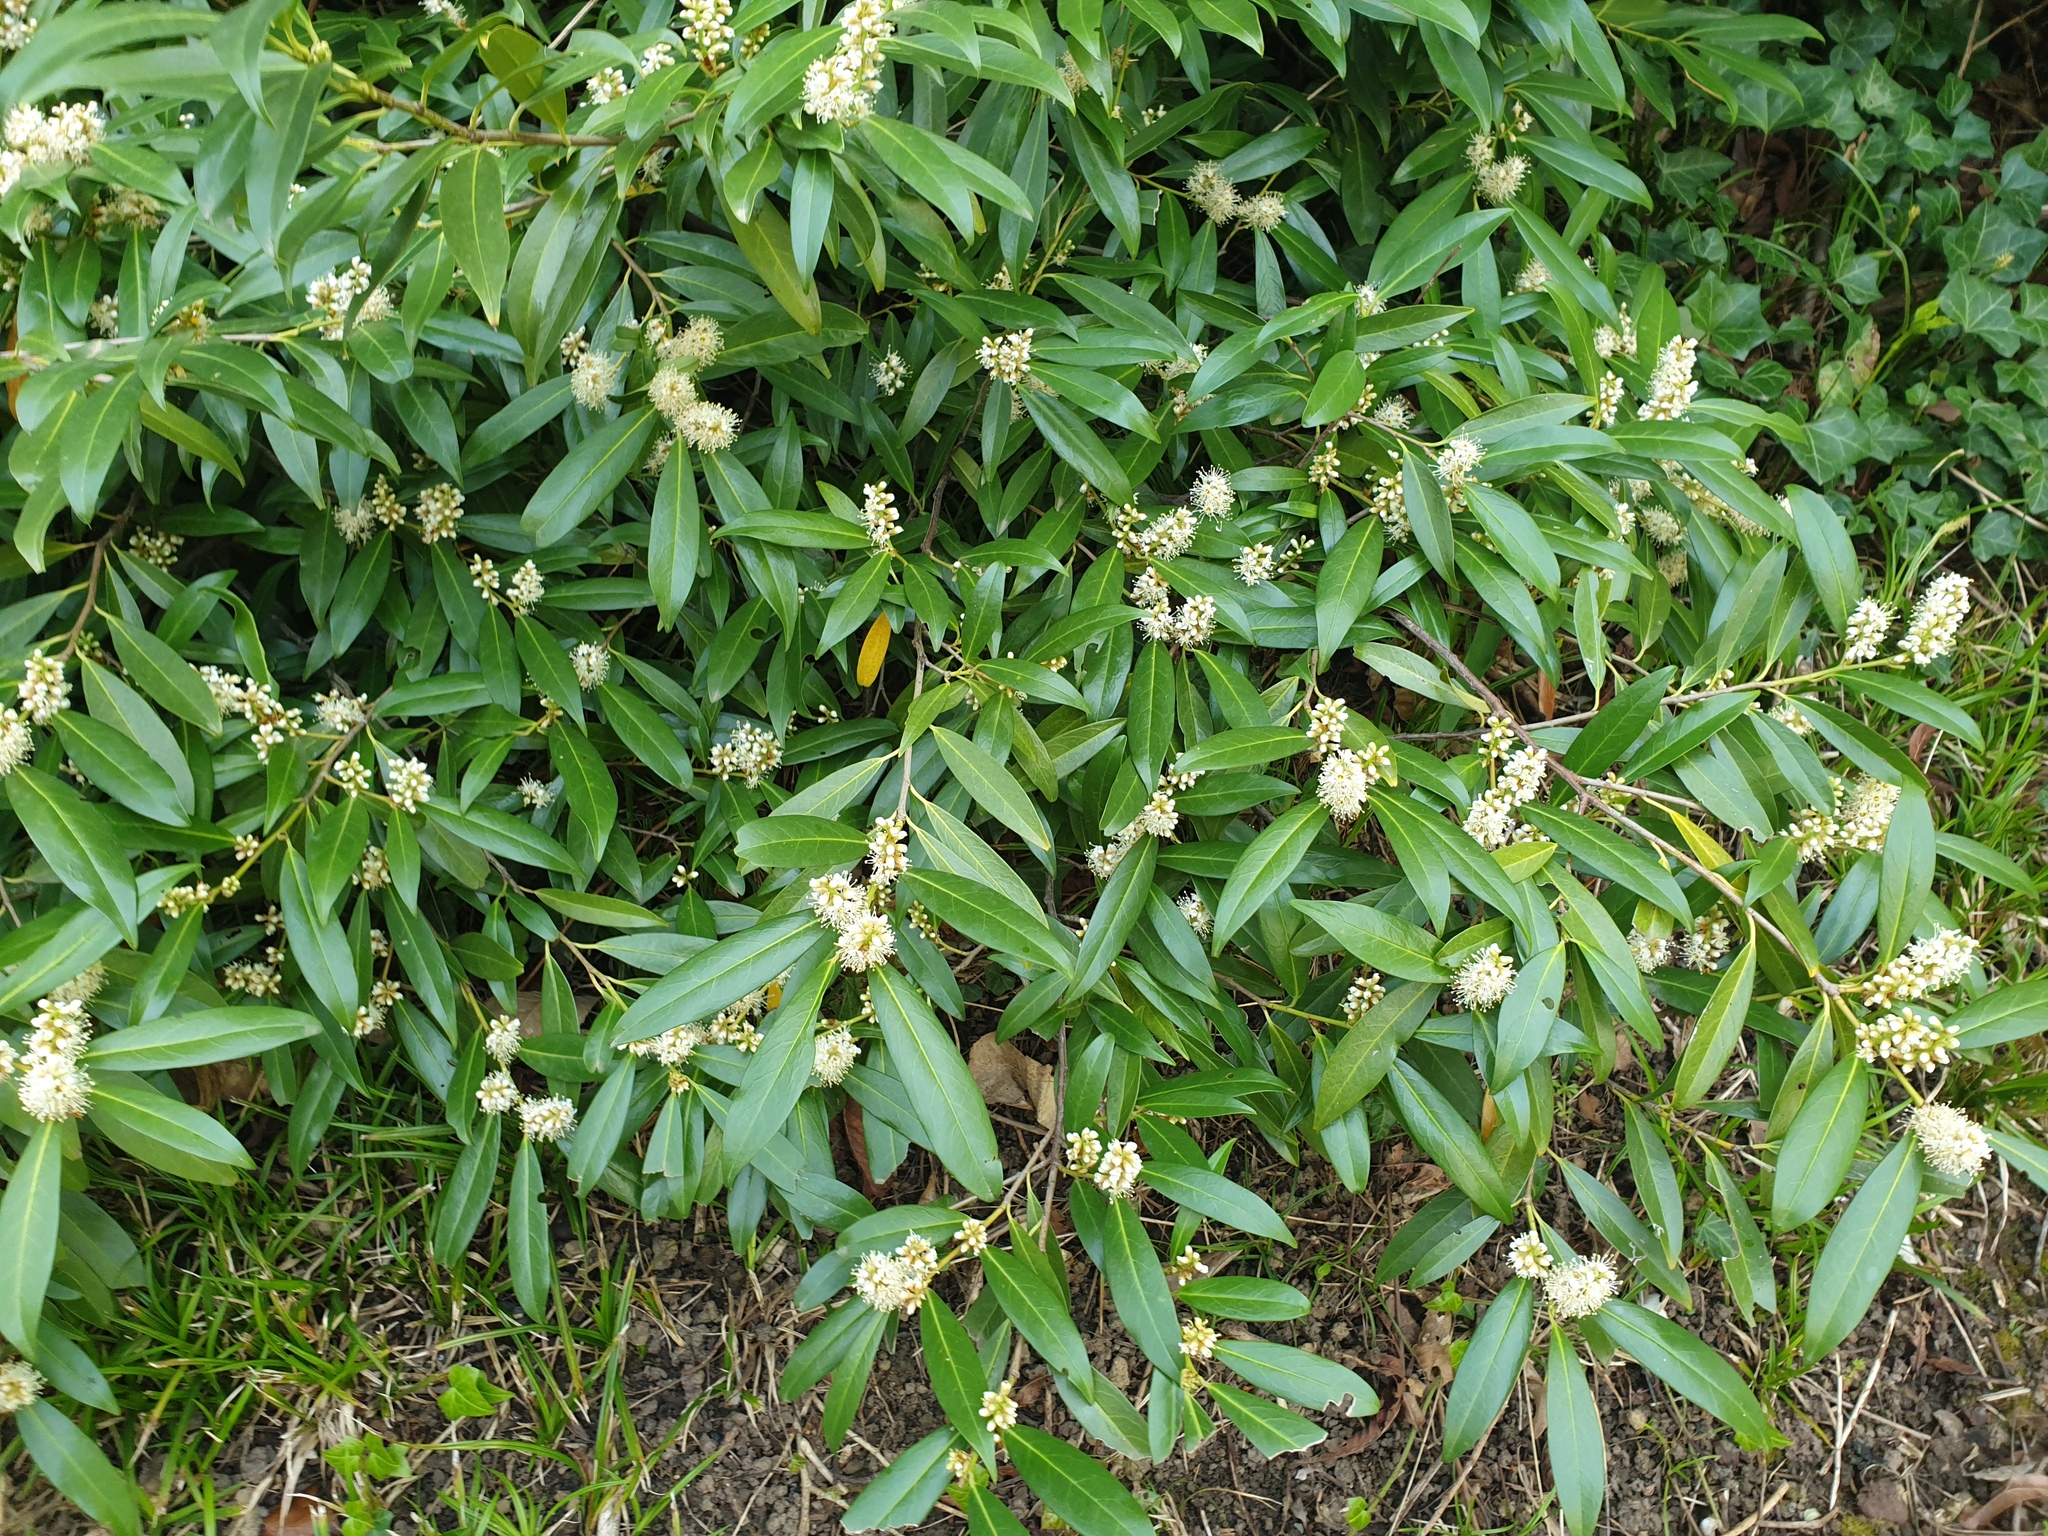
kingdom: Plantae
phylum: Tracheophyta
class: Magnoliopsida
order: Rosales
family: Rosaceae
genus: Prunus
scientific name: Prunus laurocerasus
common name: Cherry laurel
